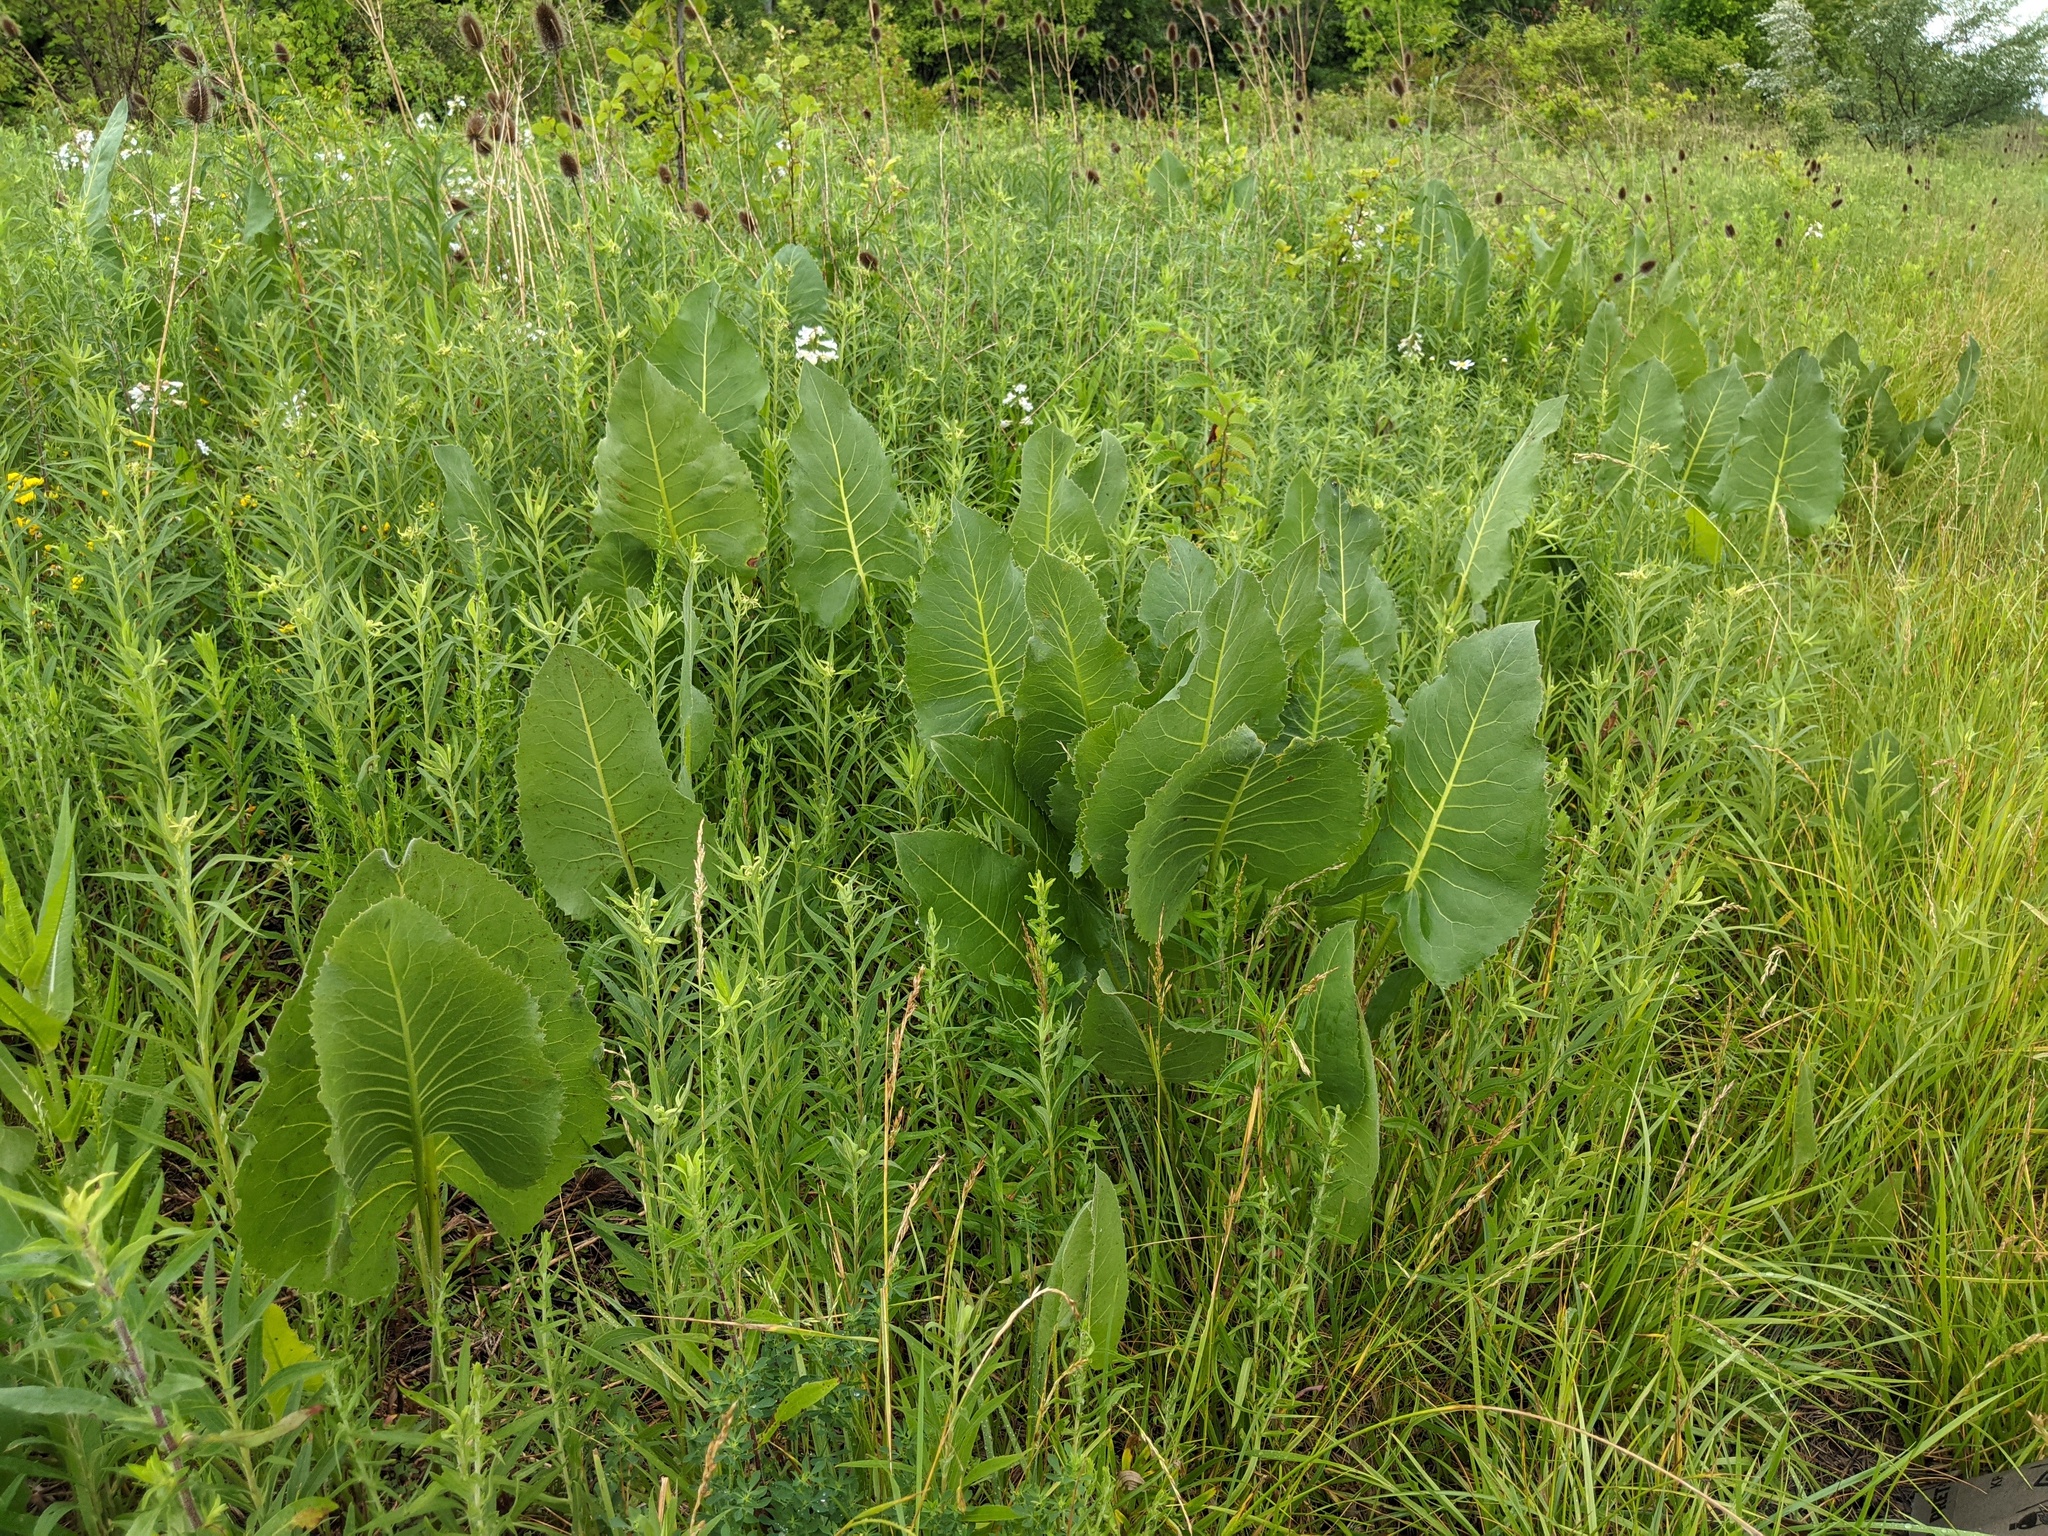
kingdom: Plantae
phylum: Tracheophyta
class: Magnoliopsida
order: Asterales
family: Asteraceae
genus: Silphium
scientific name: Silphium terebinthinaceum
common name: Basal-leaf rosinweed
